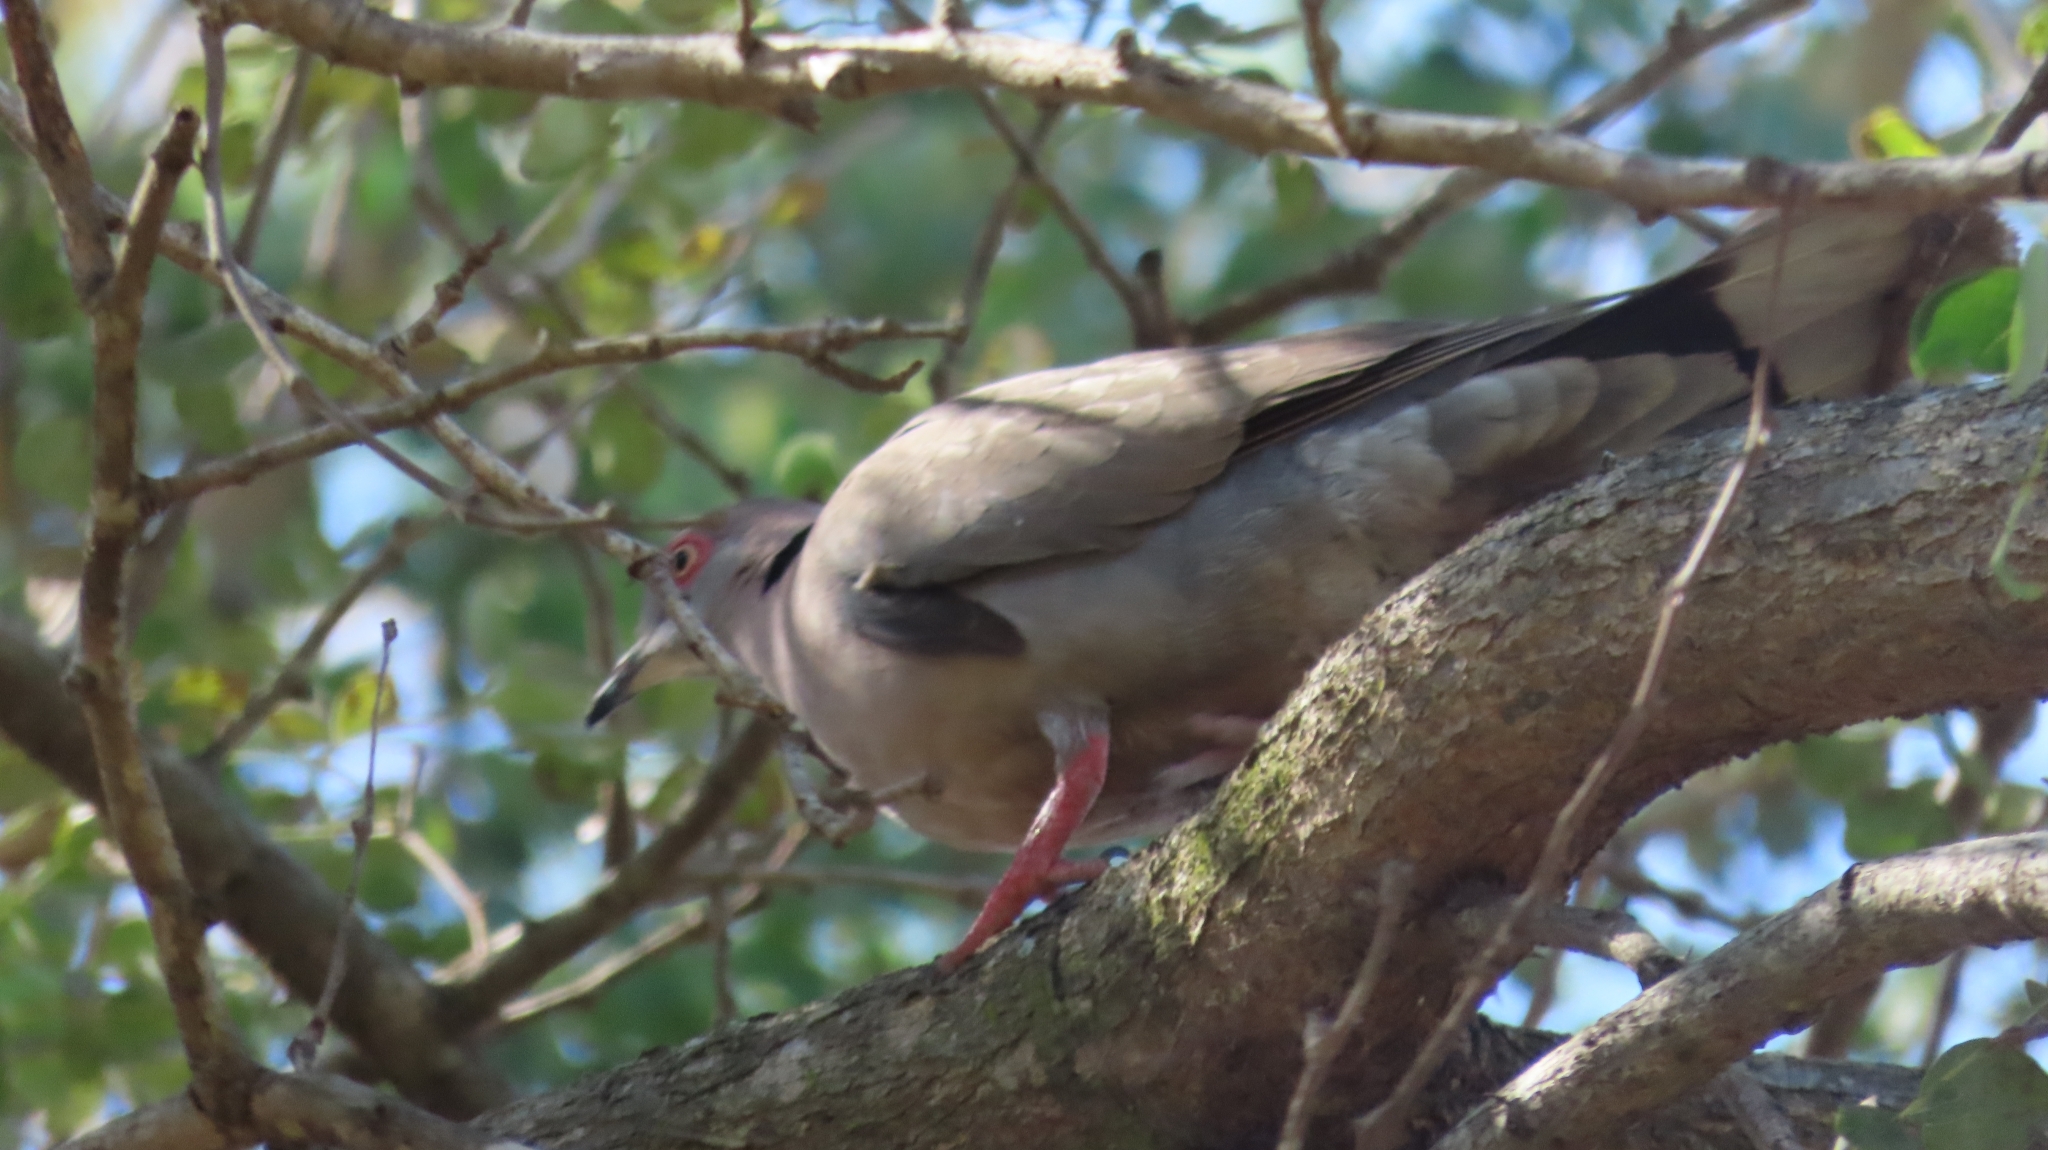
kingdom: Animalia
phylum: Chordata
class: Aves
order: Columbiformes
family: Columbidae
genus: Streptopelia
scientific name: Streptopelia decipiens
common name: Mourning collared dove
